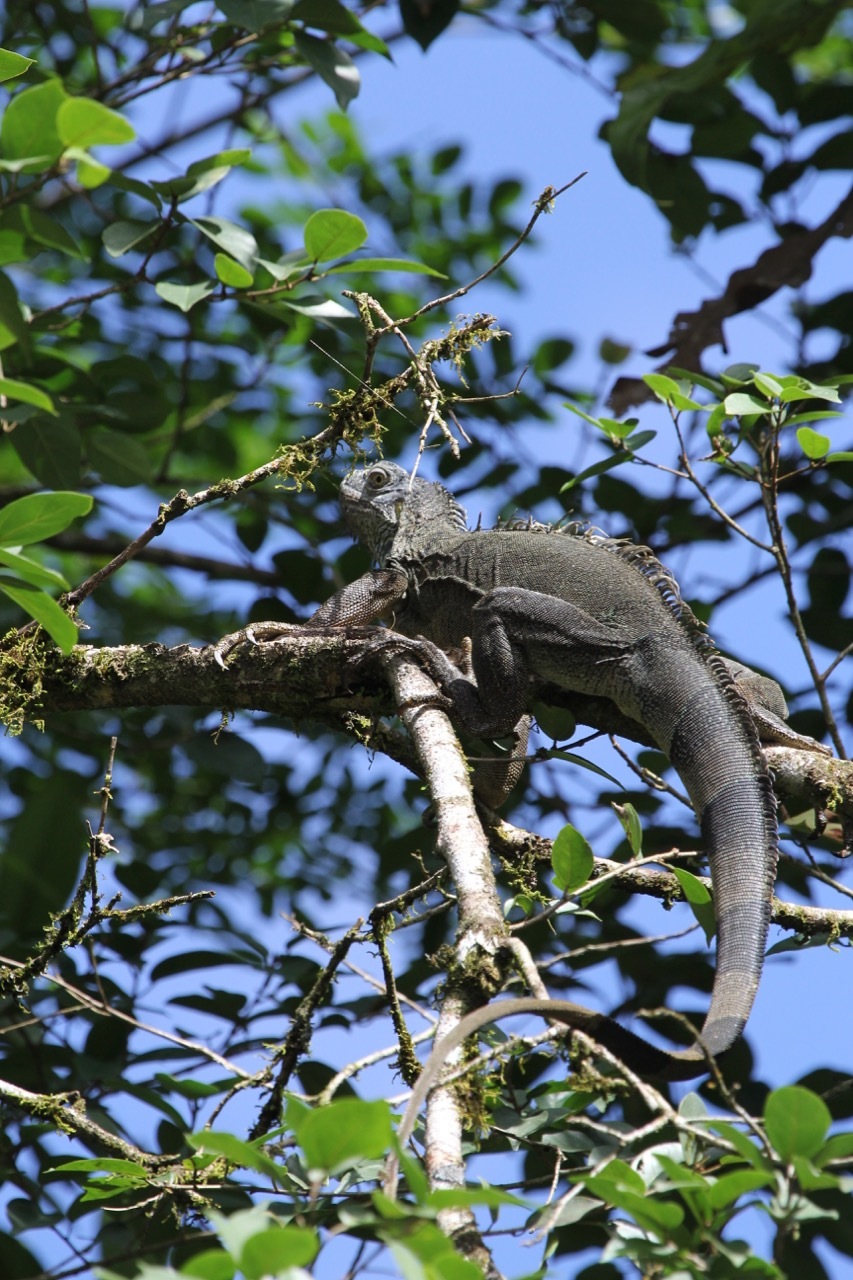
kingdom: Animalia
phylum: Chordata
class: Squamata
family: Iguanidae
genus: Iguana
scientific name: Iguana iguana
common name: Green iguana
